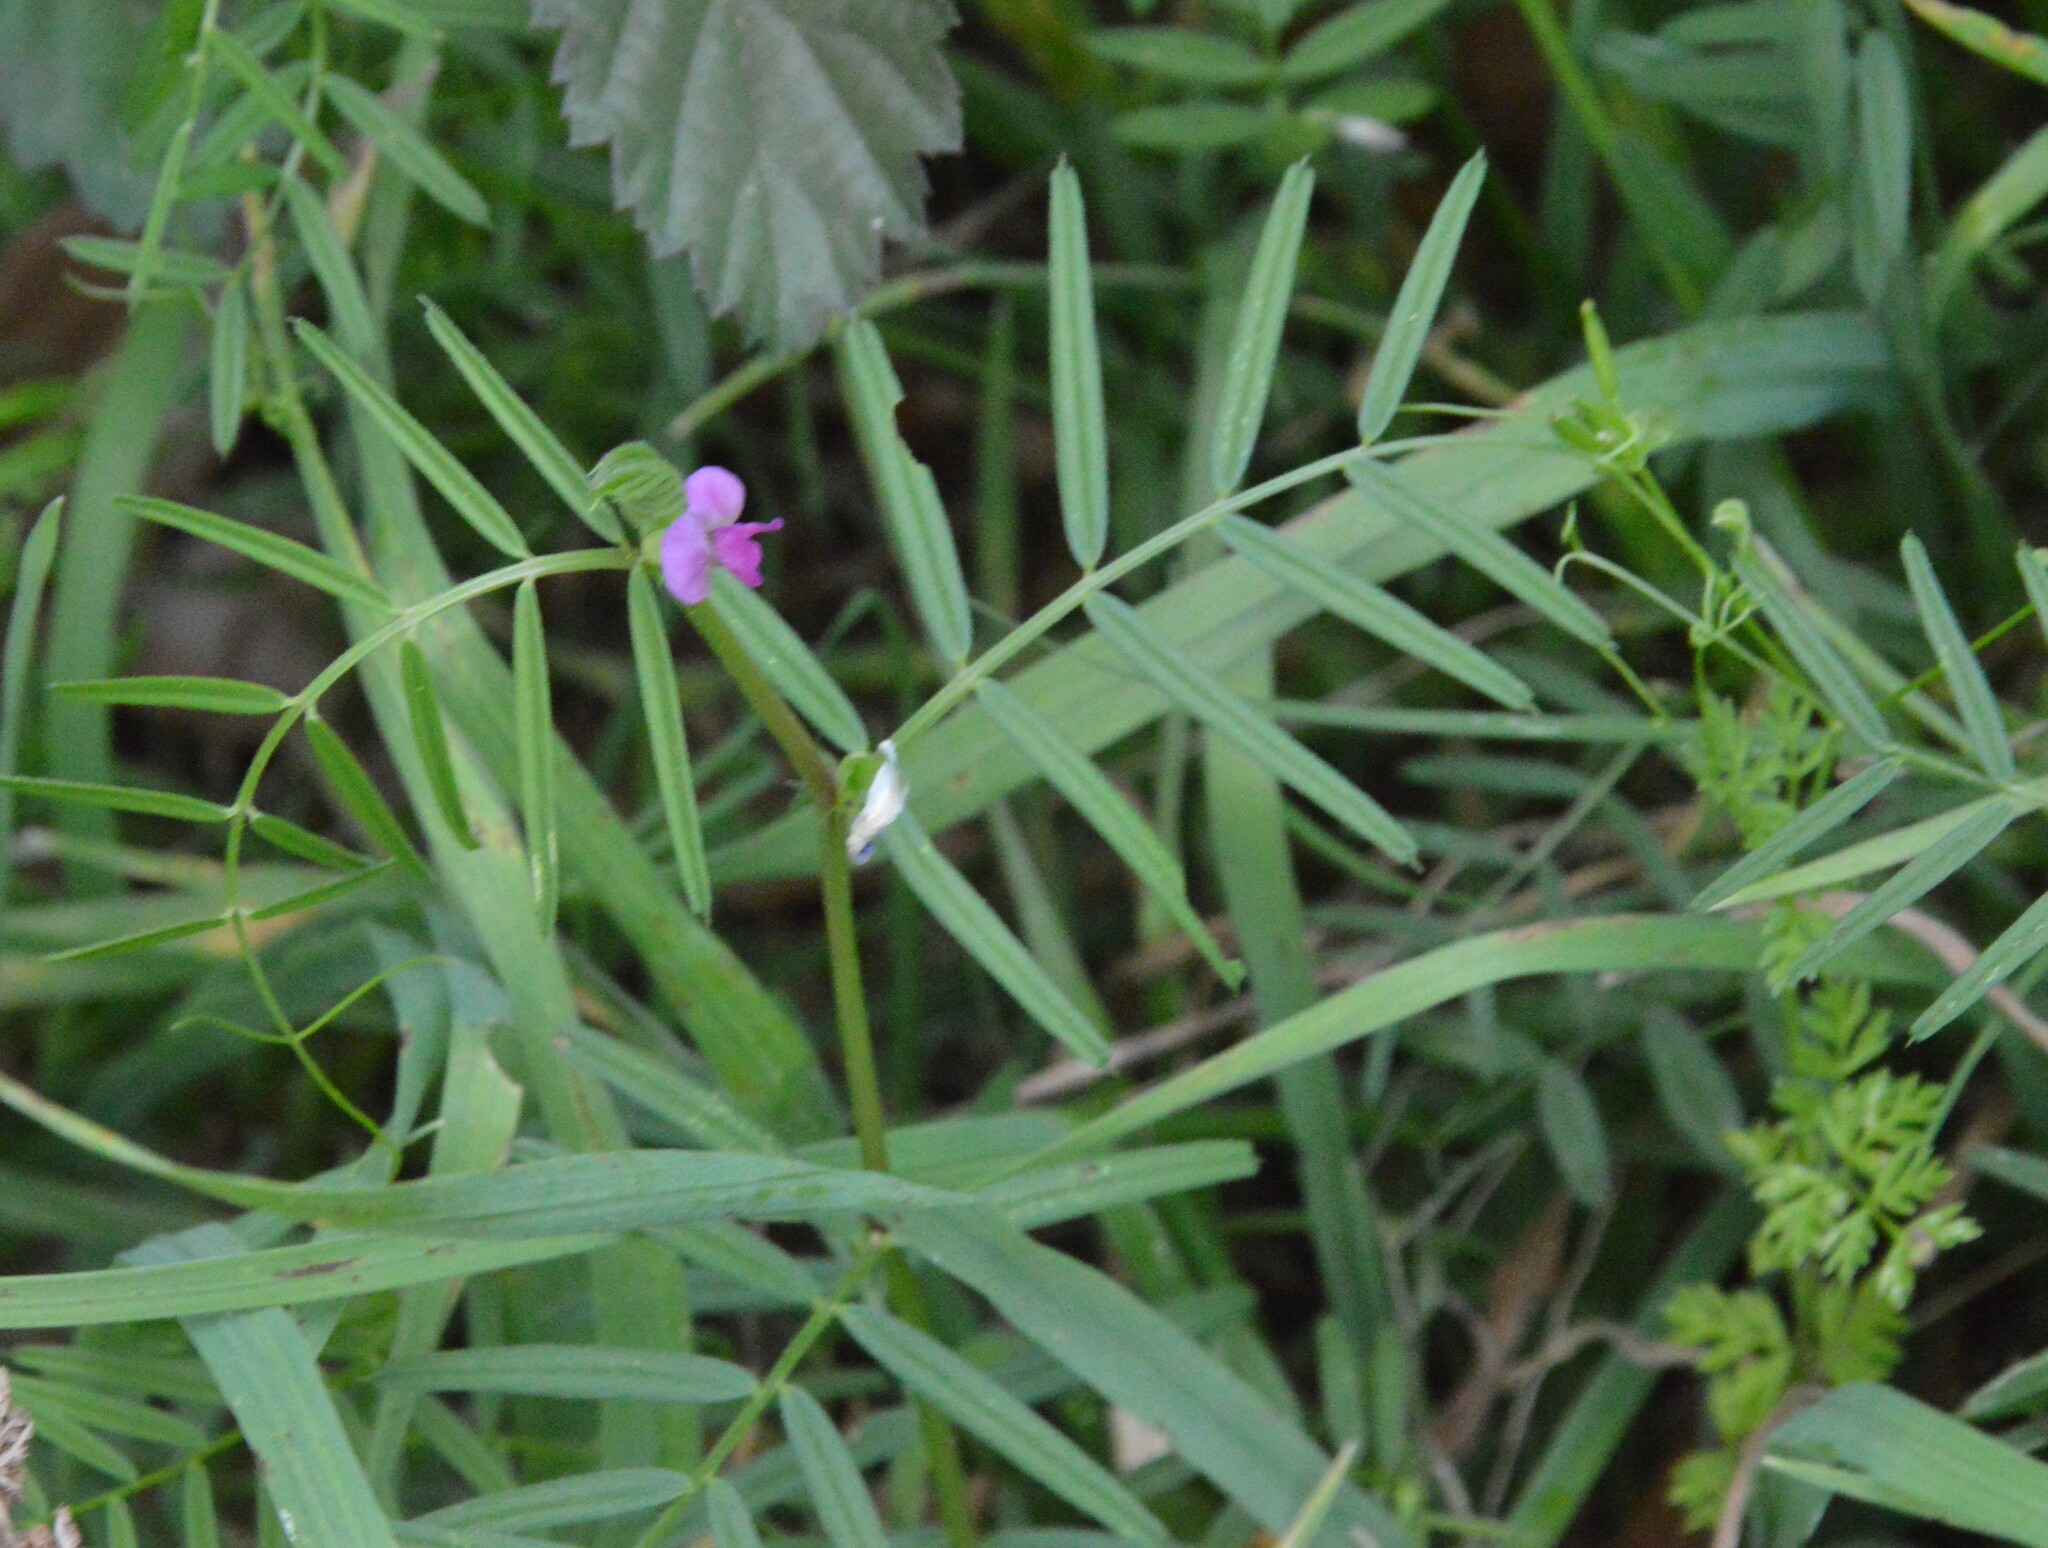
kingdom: Plantae
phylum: Tracheophyta
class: Magnoliopsida
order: Fabales
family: Fabaceae
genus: Vicia
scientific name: Vicia sativa
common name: Garden vetch
